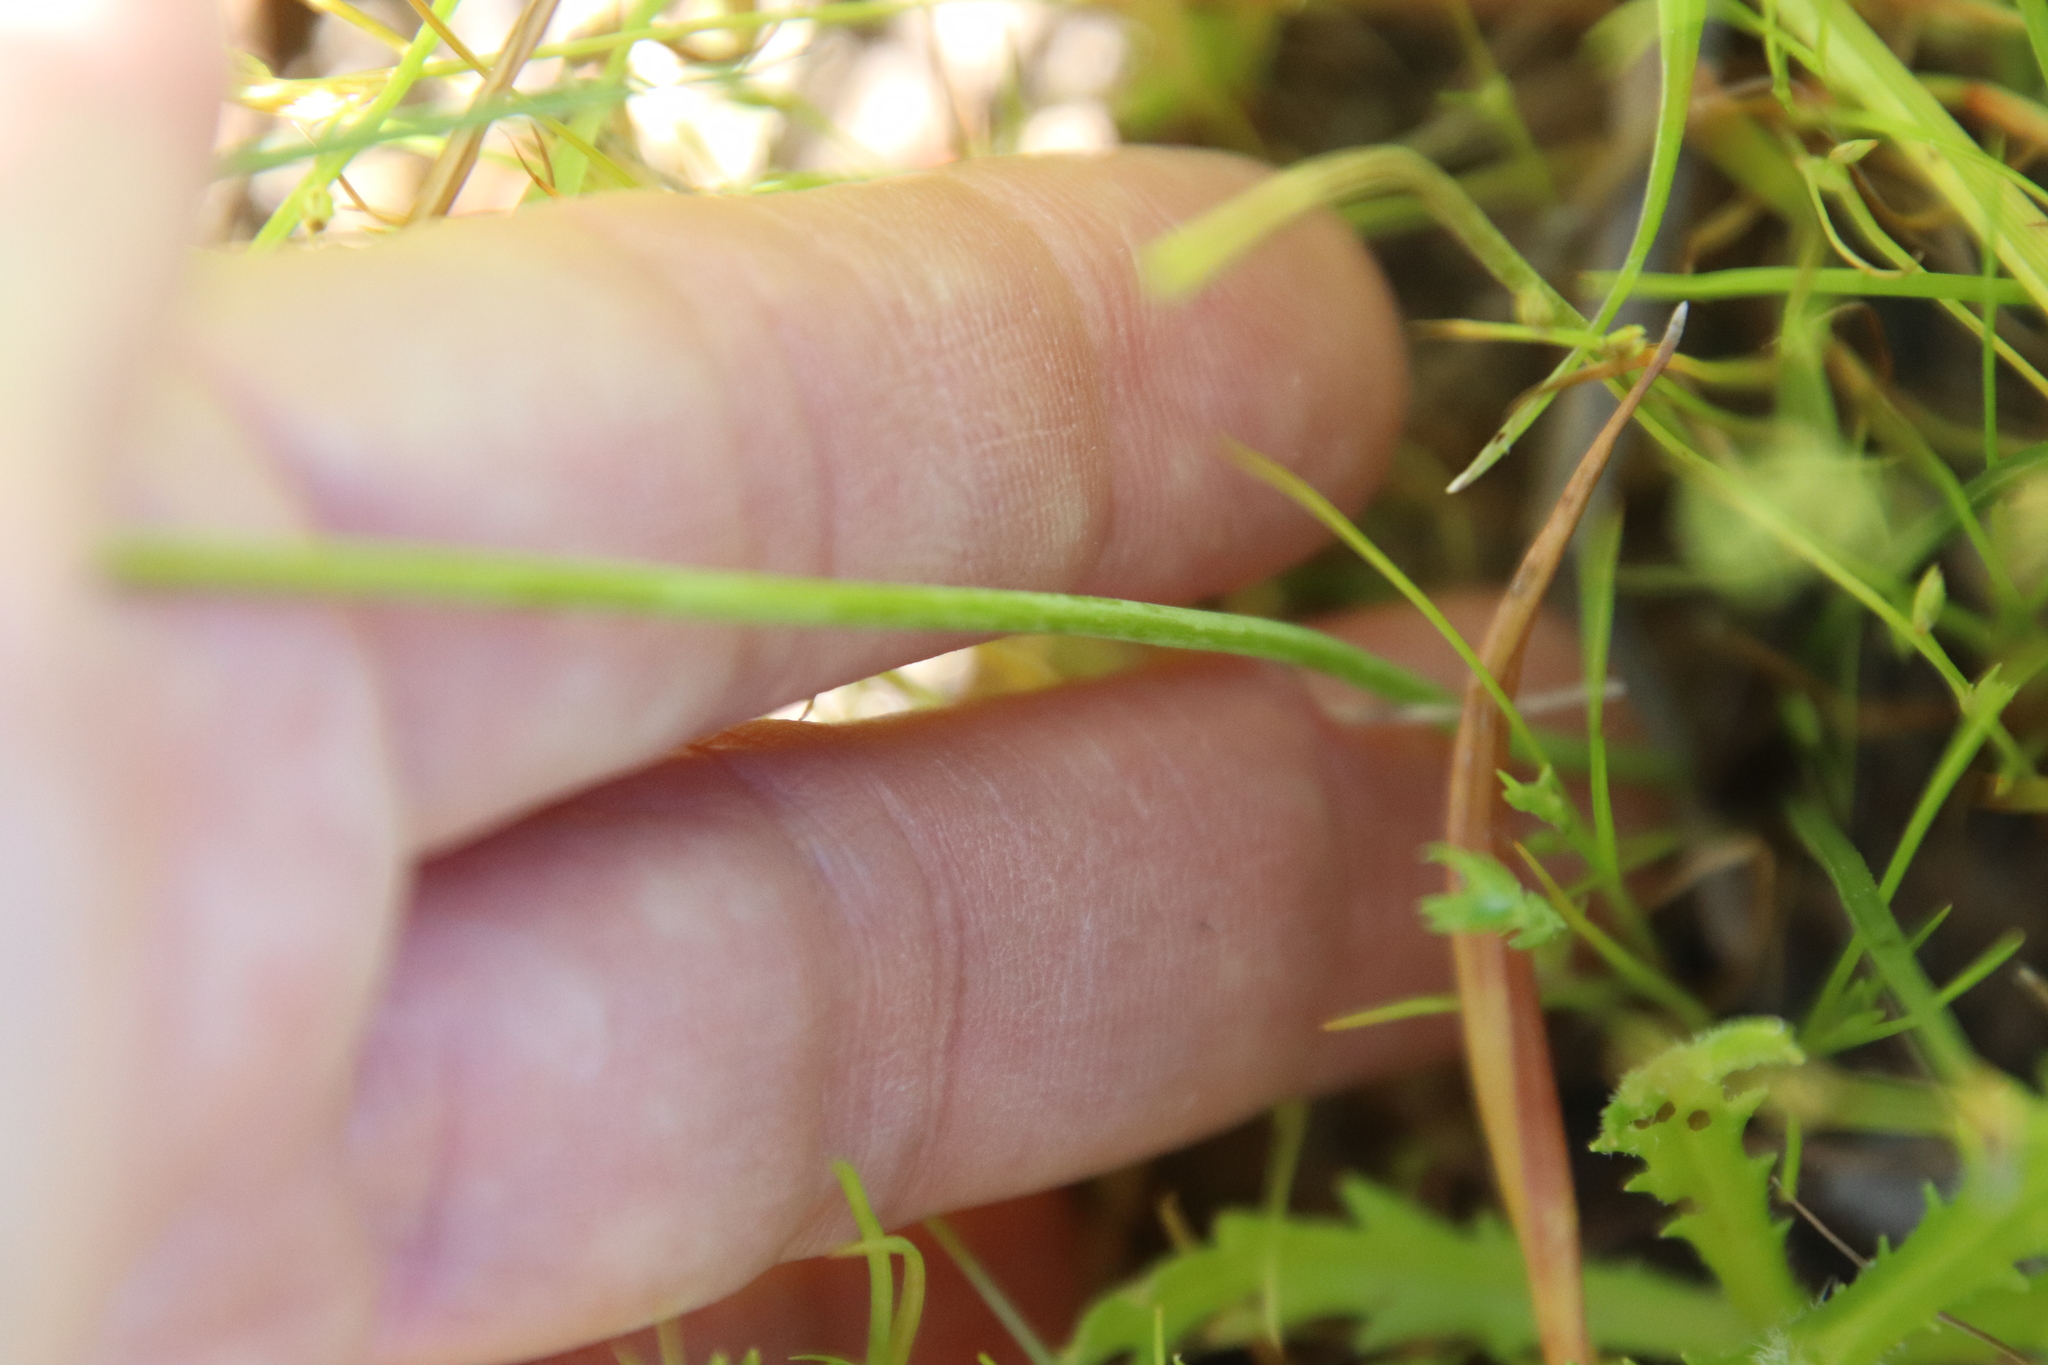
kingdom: Plantae
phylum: Tracheophyta
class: Liliopsida
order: Asparagales
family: Asparagaceae
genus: Muilla
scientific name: Muilla maritima
